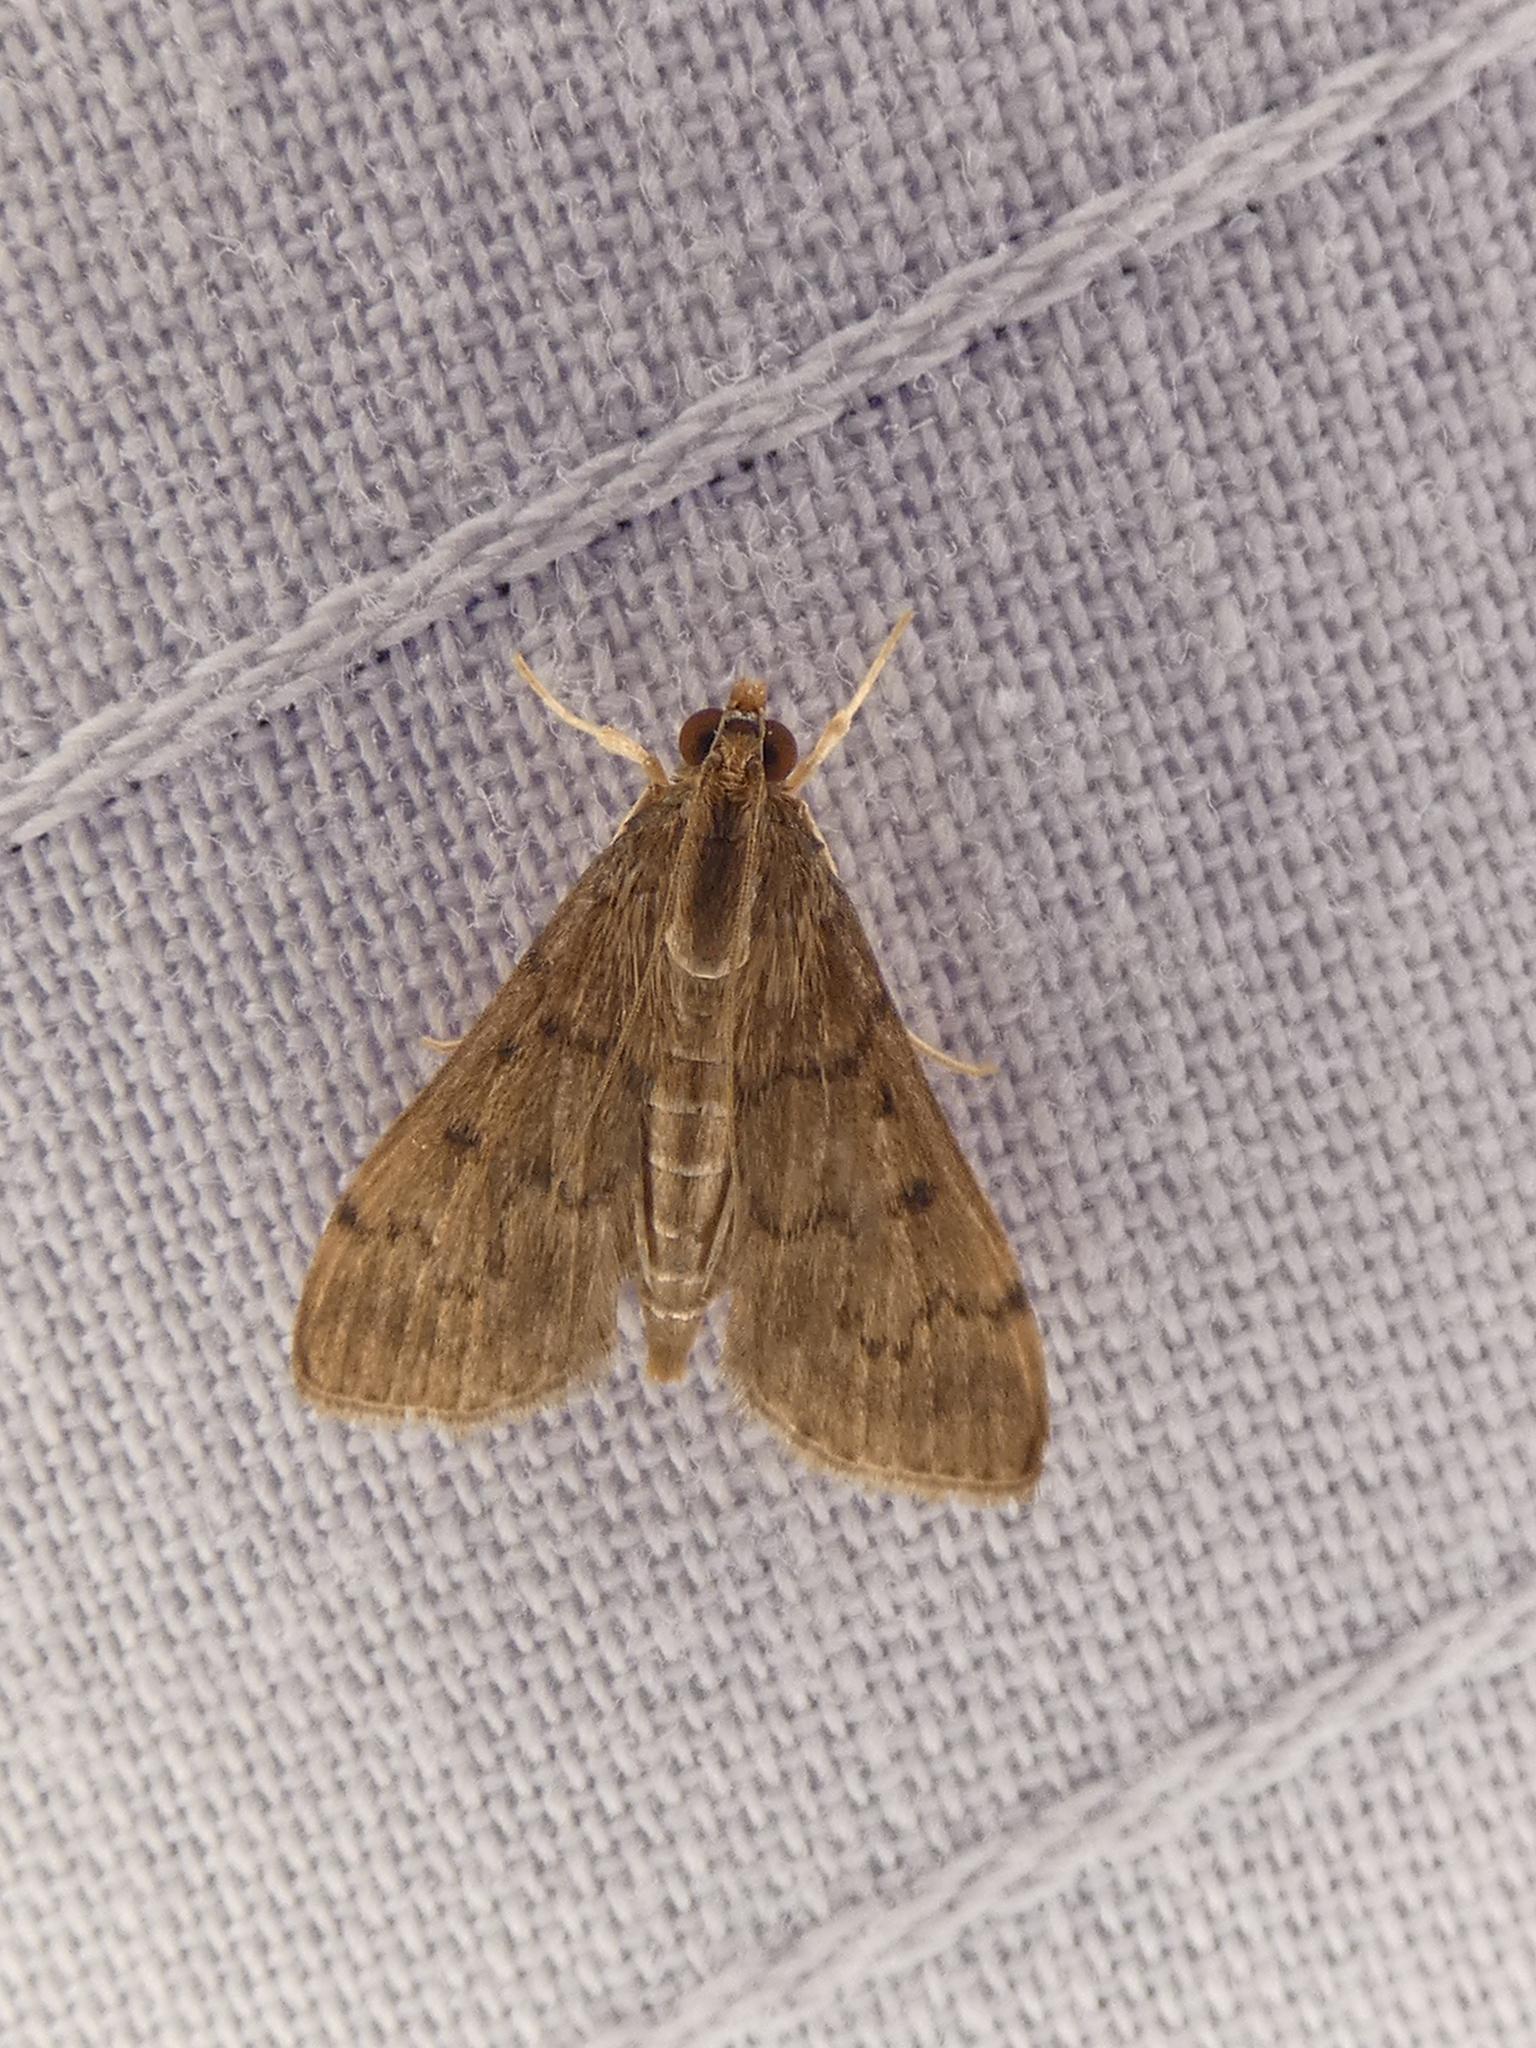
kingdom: Animalia
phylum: Arthropoda
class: Insecta
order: Lepidoptera
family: Crambidae
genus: Herpetogramma
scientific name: Herpetogramma phaeopteralis
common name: Dusky herpetogramma moth
